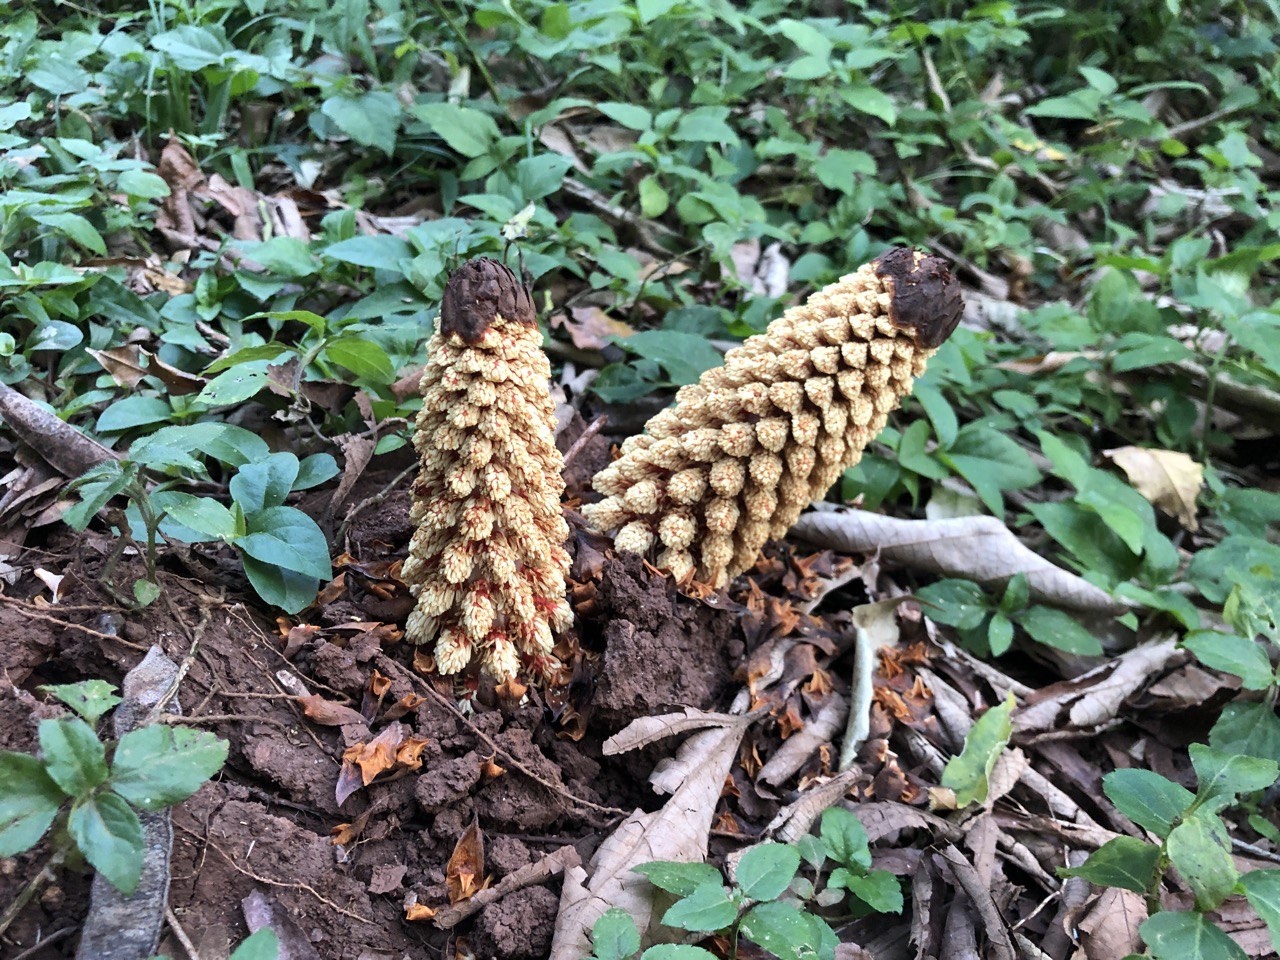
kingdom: Plantae
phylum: Tracheophyta
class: Magnoliopsida
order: Santalales
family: Balanophoraceae
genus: Lophophytum
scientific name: Lophophytum mirabile
